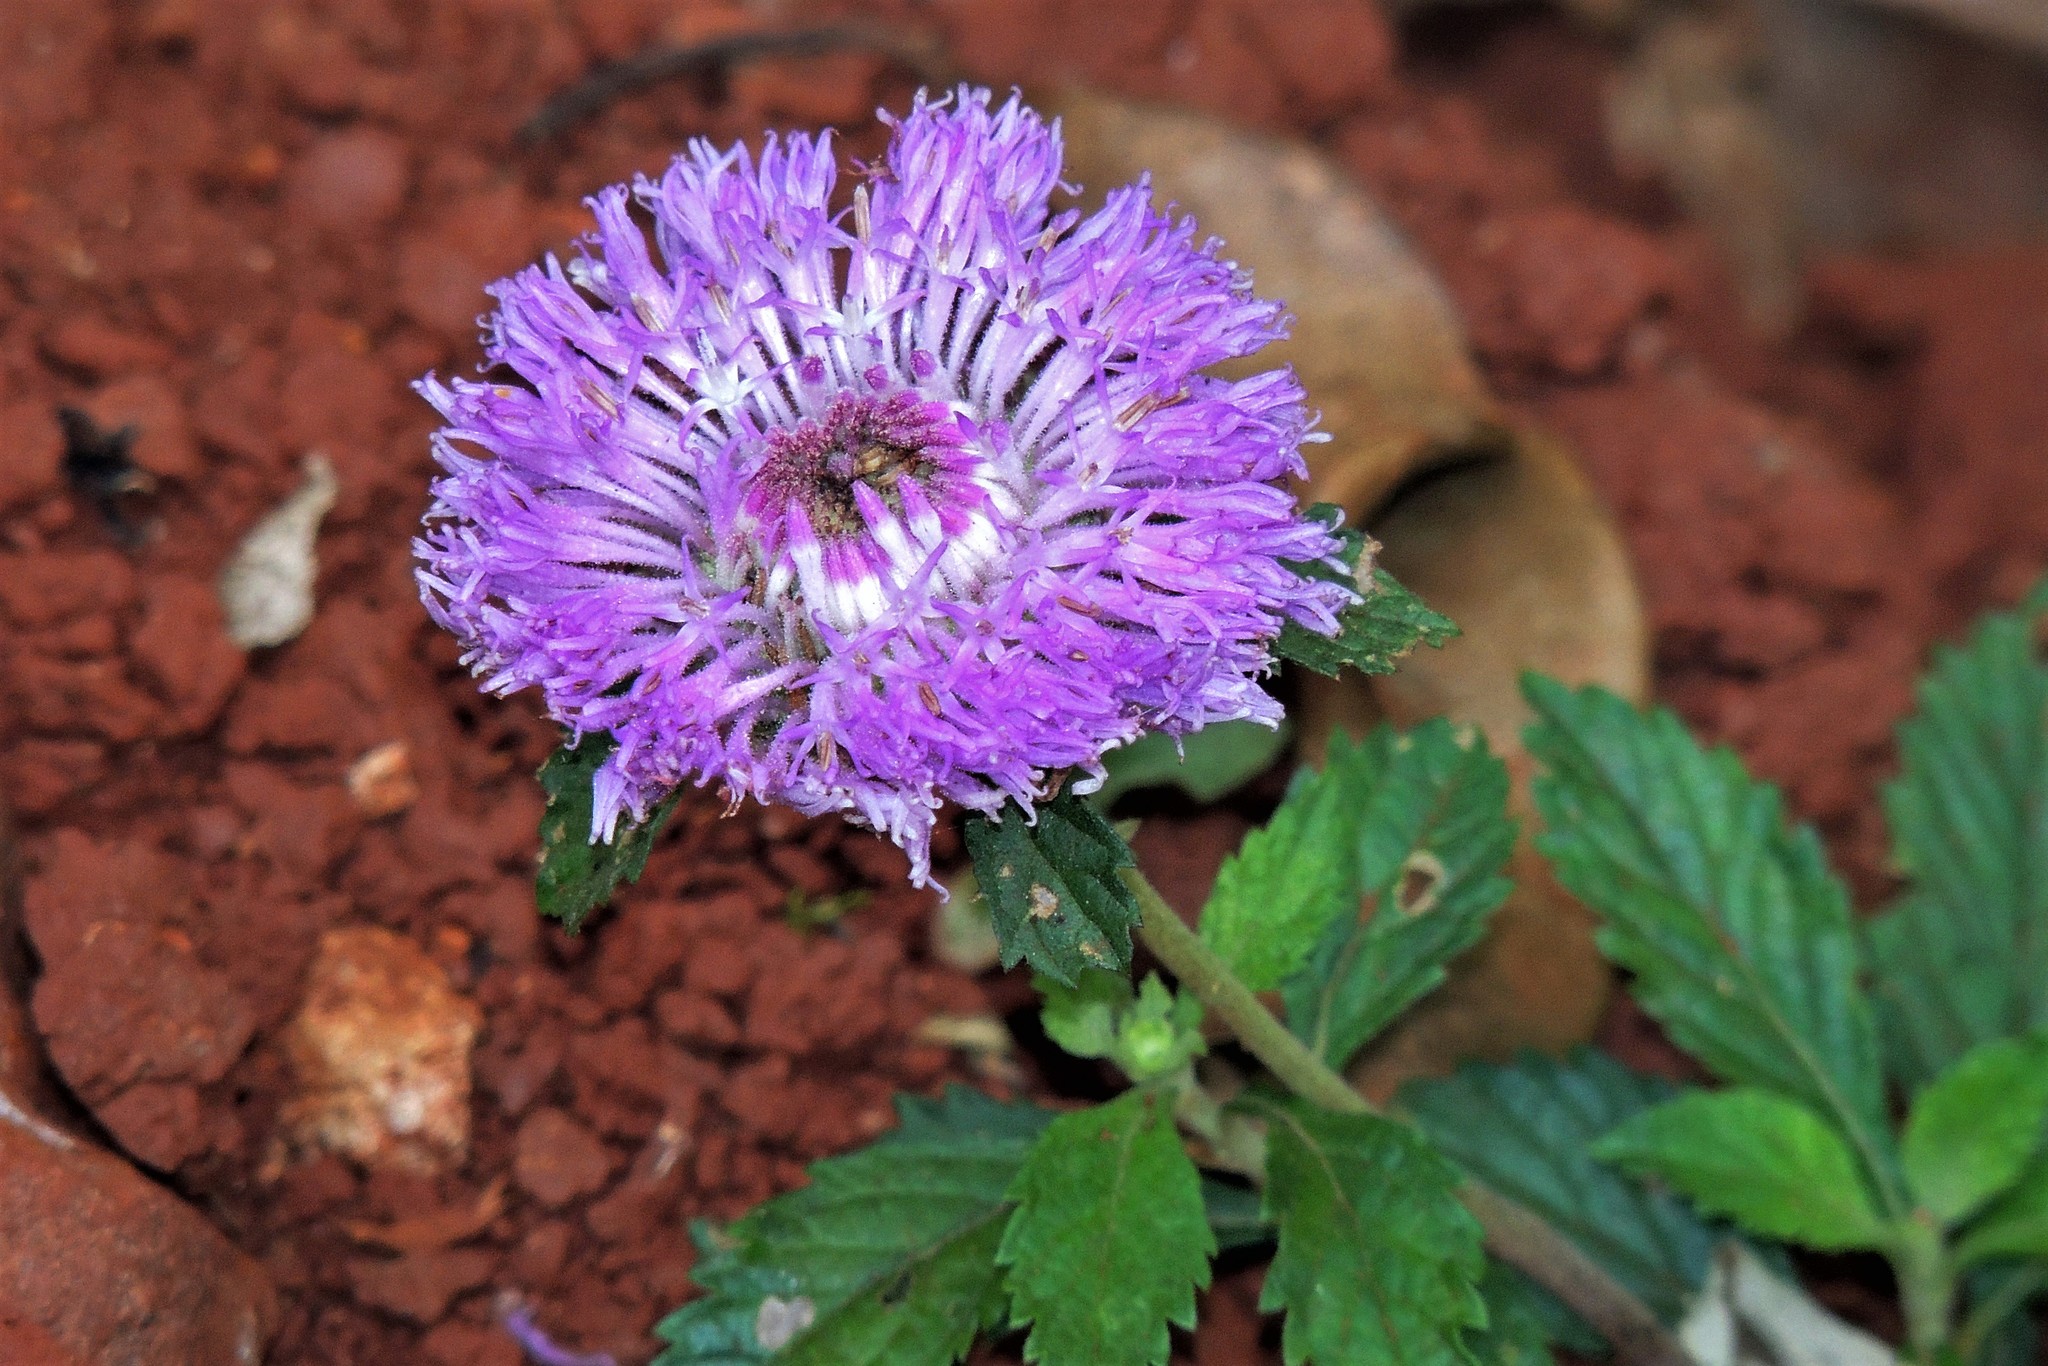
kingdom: Plantae
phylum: Tracheophyta
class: Magnoliopsida
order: Asterales
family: Asteraceae
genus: Centratherum
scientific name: Centratherum punctatum
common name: Larkdaisy
